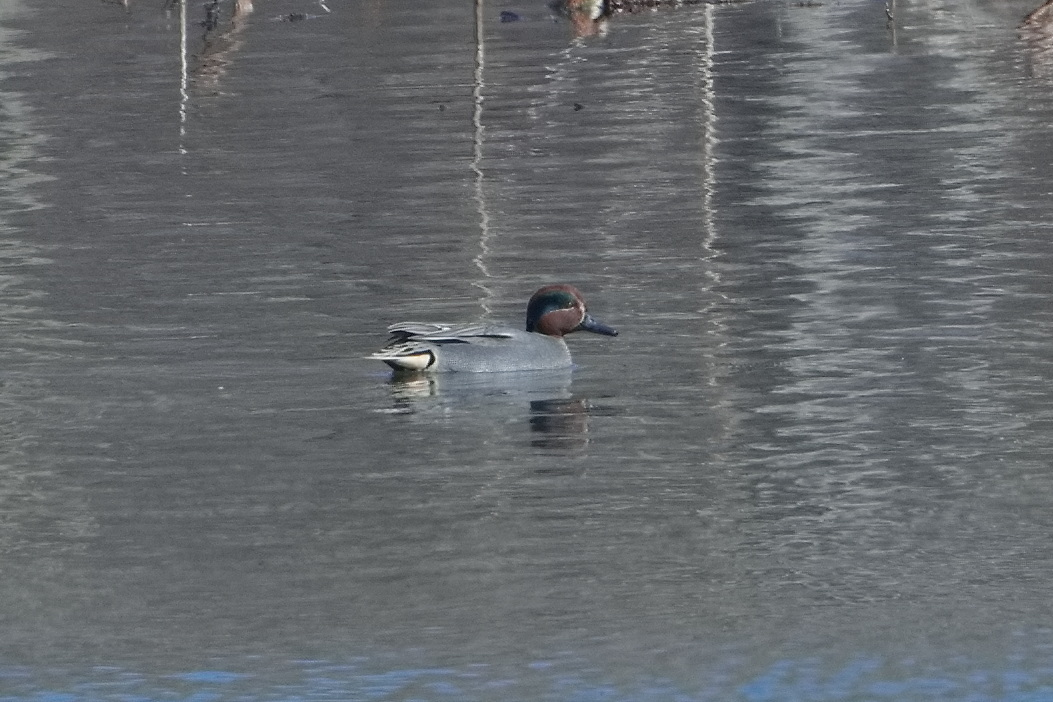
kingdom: Animalia
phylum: Chordata
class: Aves
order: Anseriformes
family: Anatidae
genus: Anas
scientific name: Anas crecca
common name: Eurasian teal
